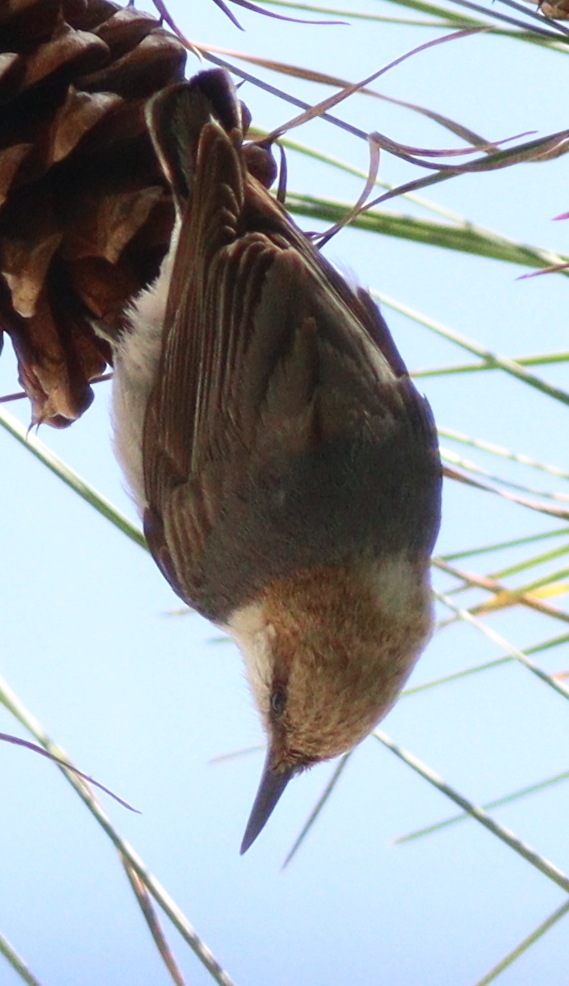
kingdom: Animalia
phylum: Chordata
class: Aves
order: Passeriformes
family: Sittidae
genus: Sitta
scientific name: Sitta pusilla
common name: Brown-headed nuthatch
